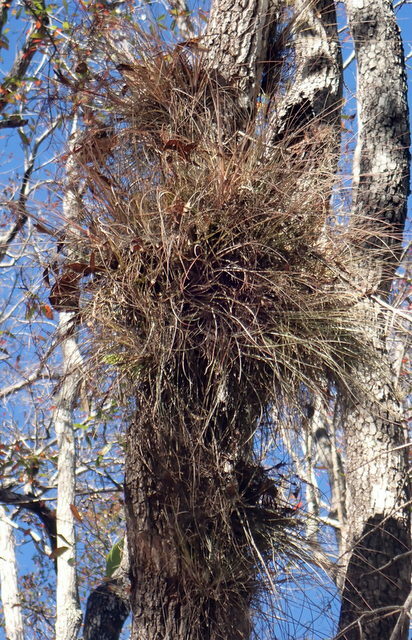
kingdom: Plantae
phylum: Tracheophyta
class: Liliopsida
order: Poales
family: Bromeliaceae
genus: Tillandsia
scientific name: Tillandsia bartramii
